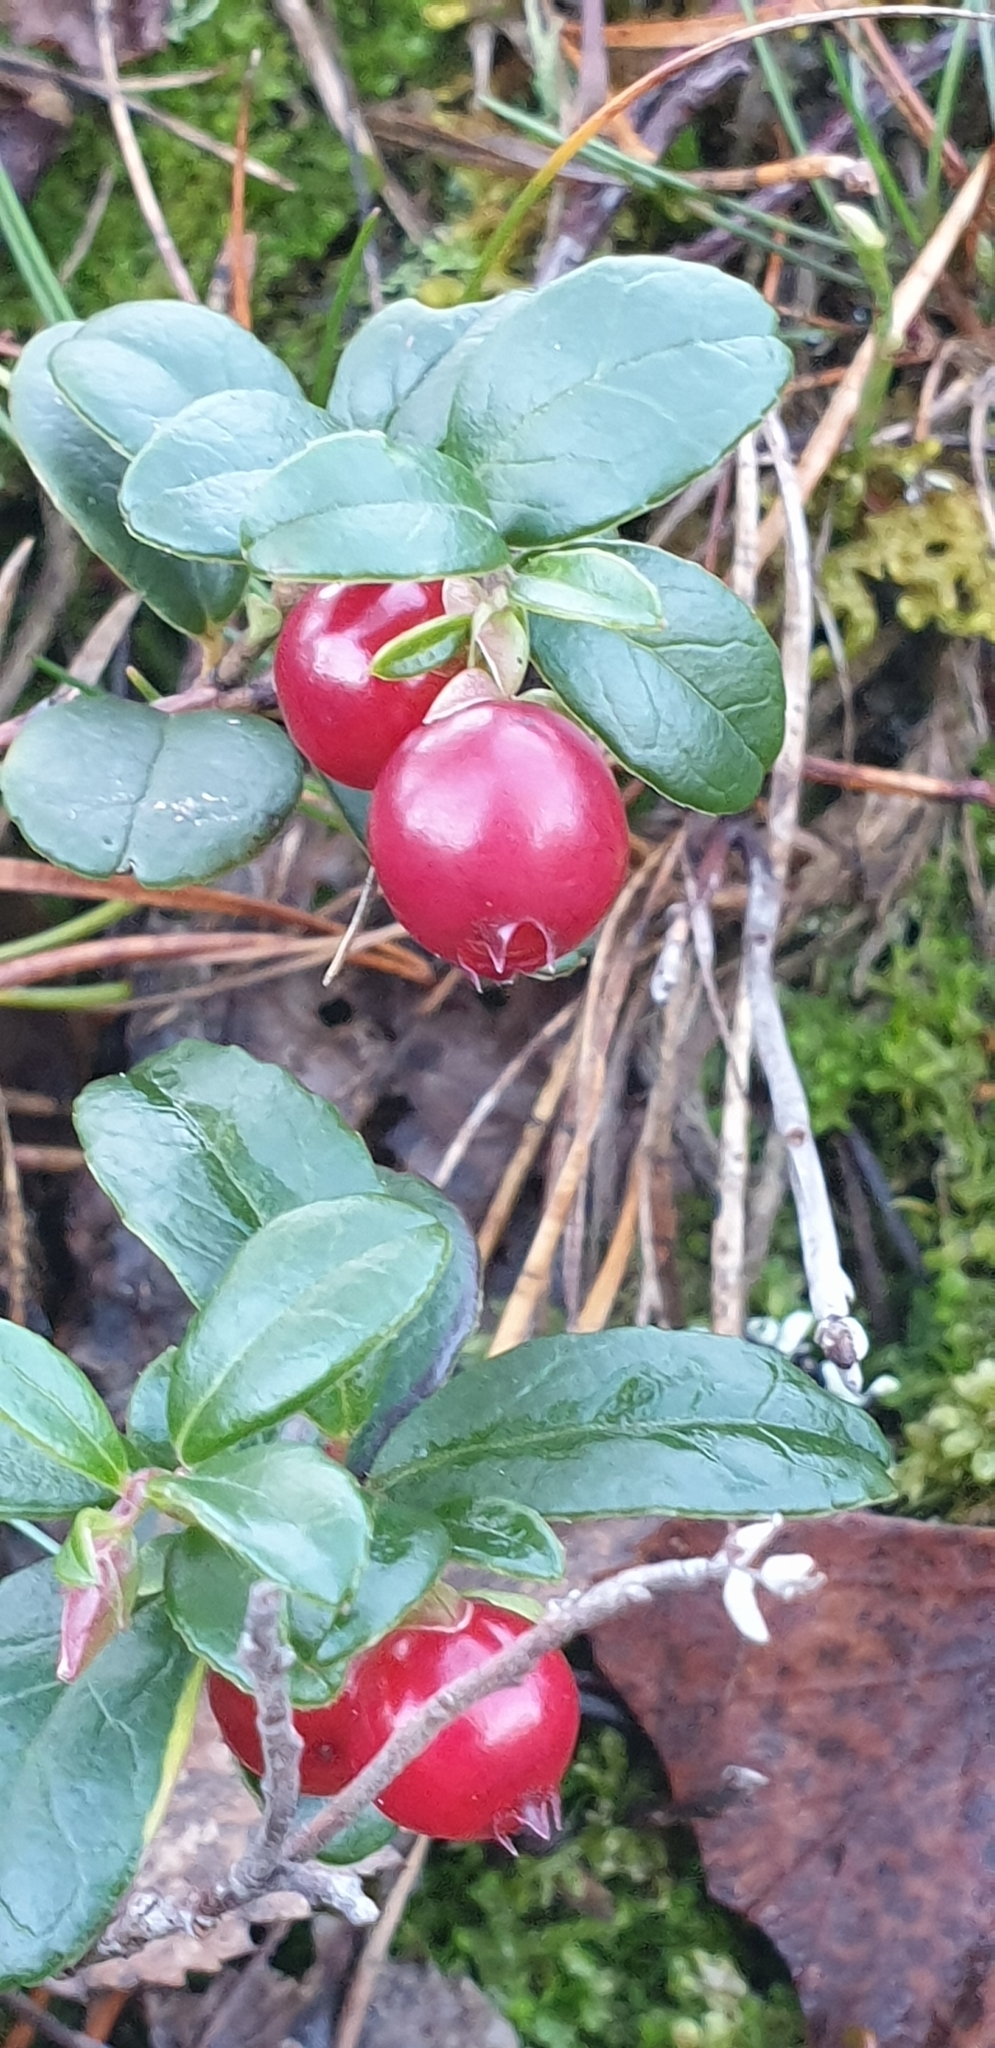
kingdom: Plantae
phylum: Tracheophyta
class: Magnoliopsida
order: Ericales
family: Ericaceae
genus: Vaccinium
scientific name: Vaccinium vitis-idaea
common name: Cowberry
